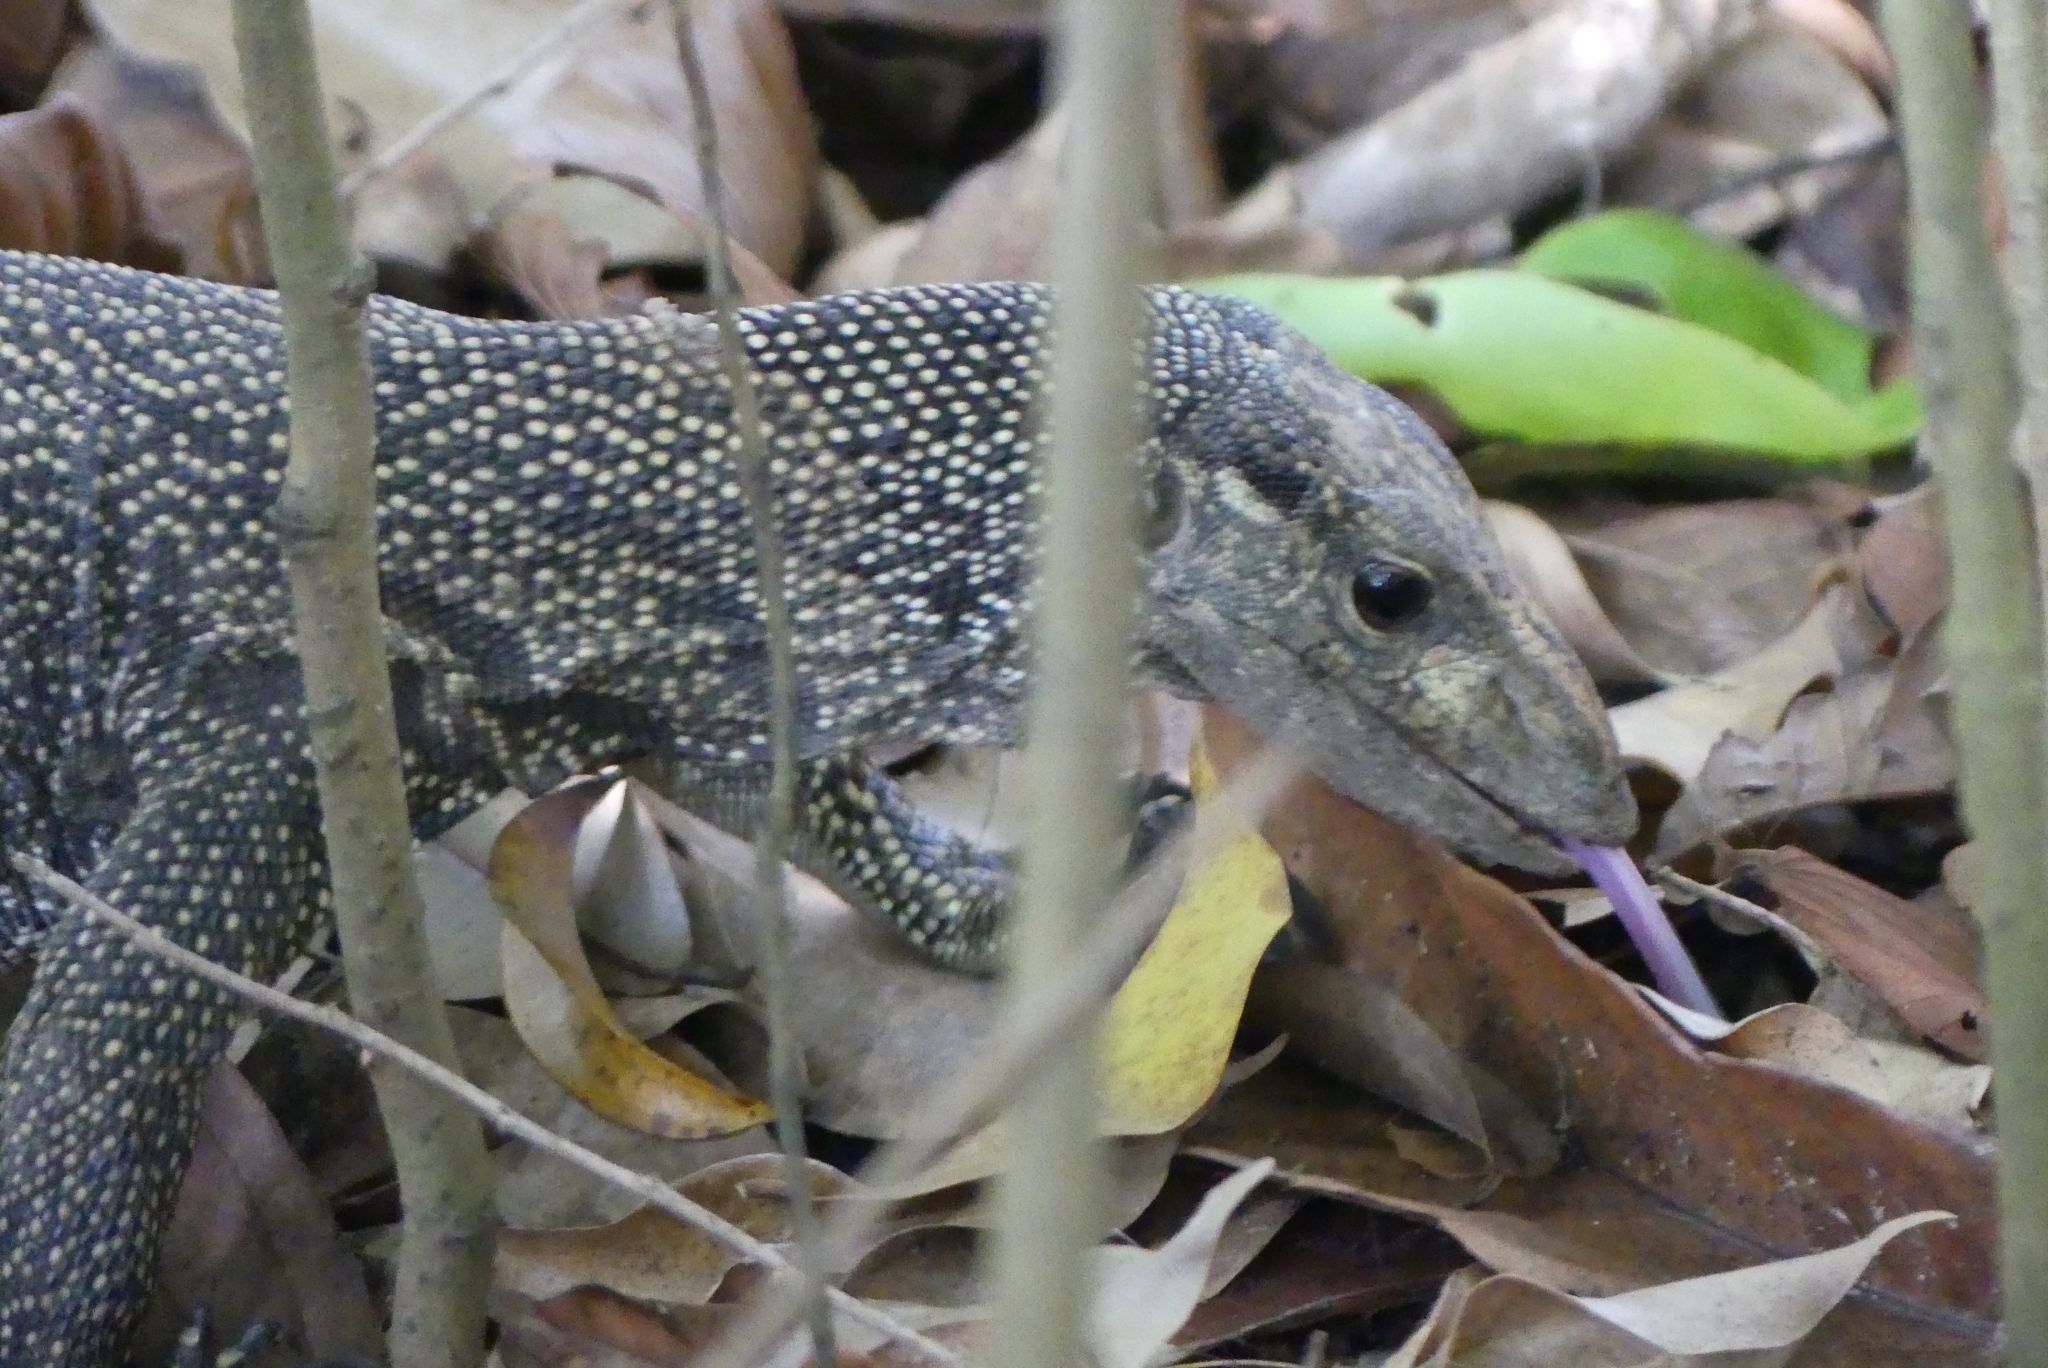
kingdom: Animalia
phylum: Chordata
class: Squamata
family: Varanidae
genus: Varanus
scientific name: Varanus nebulosus
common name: Clouded monitor
